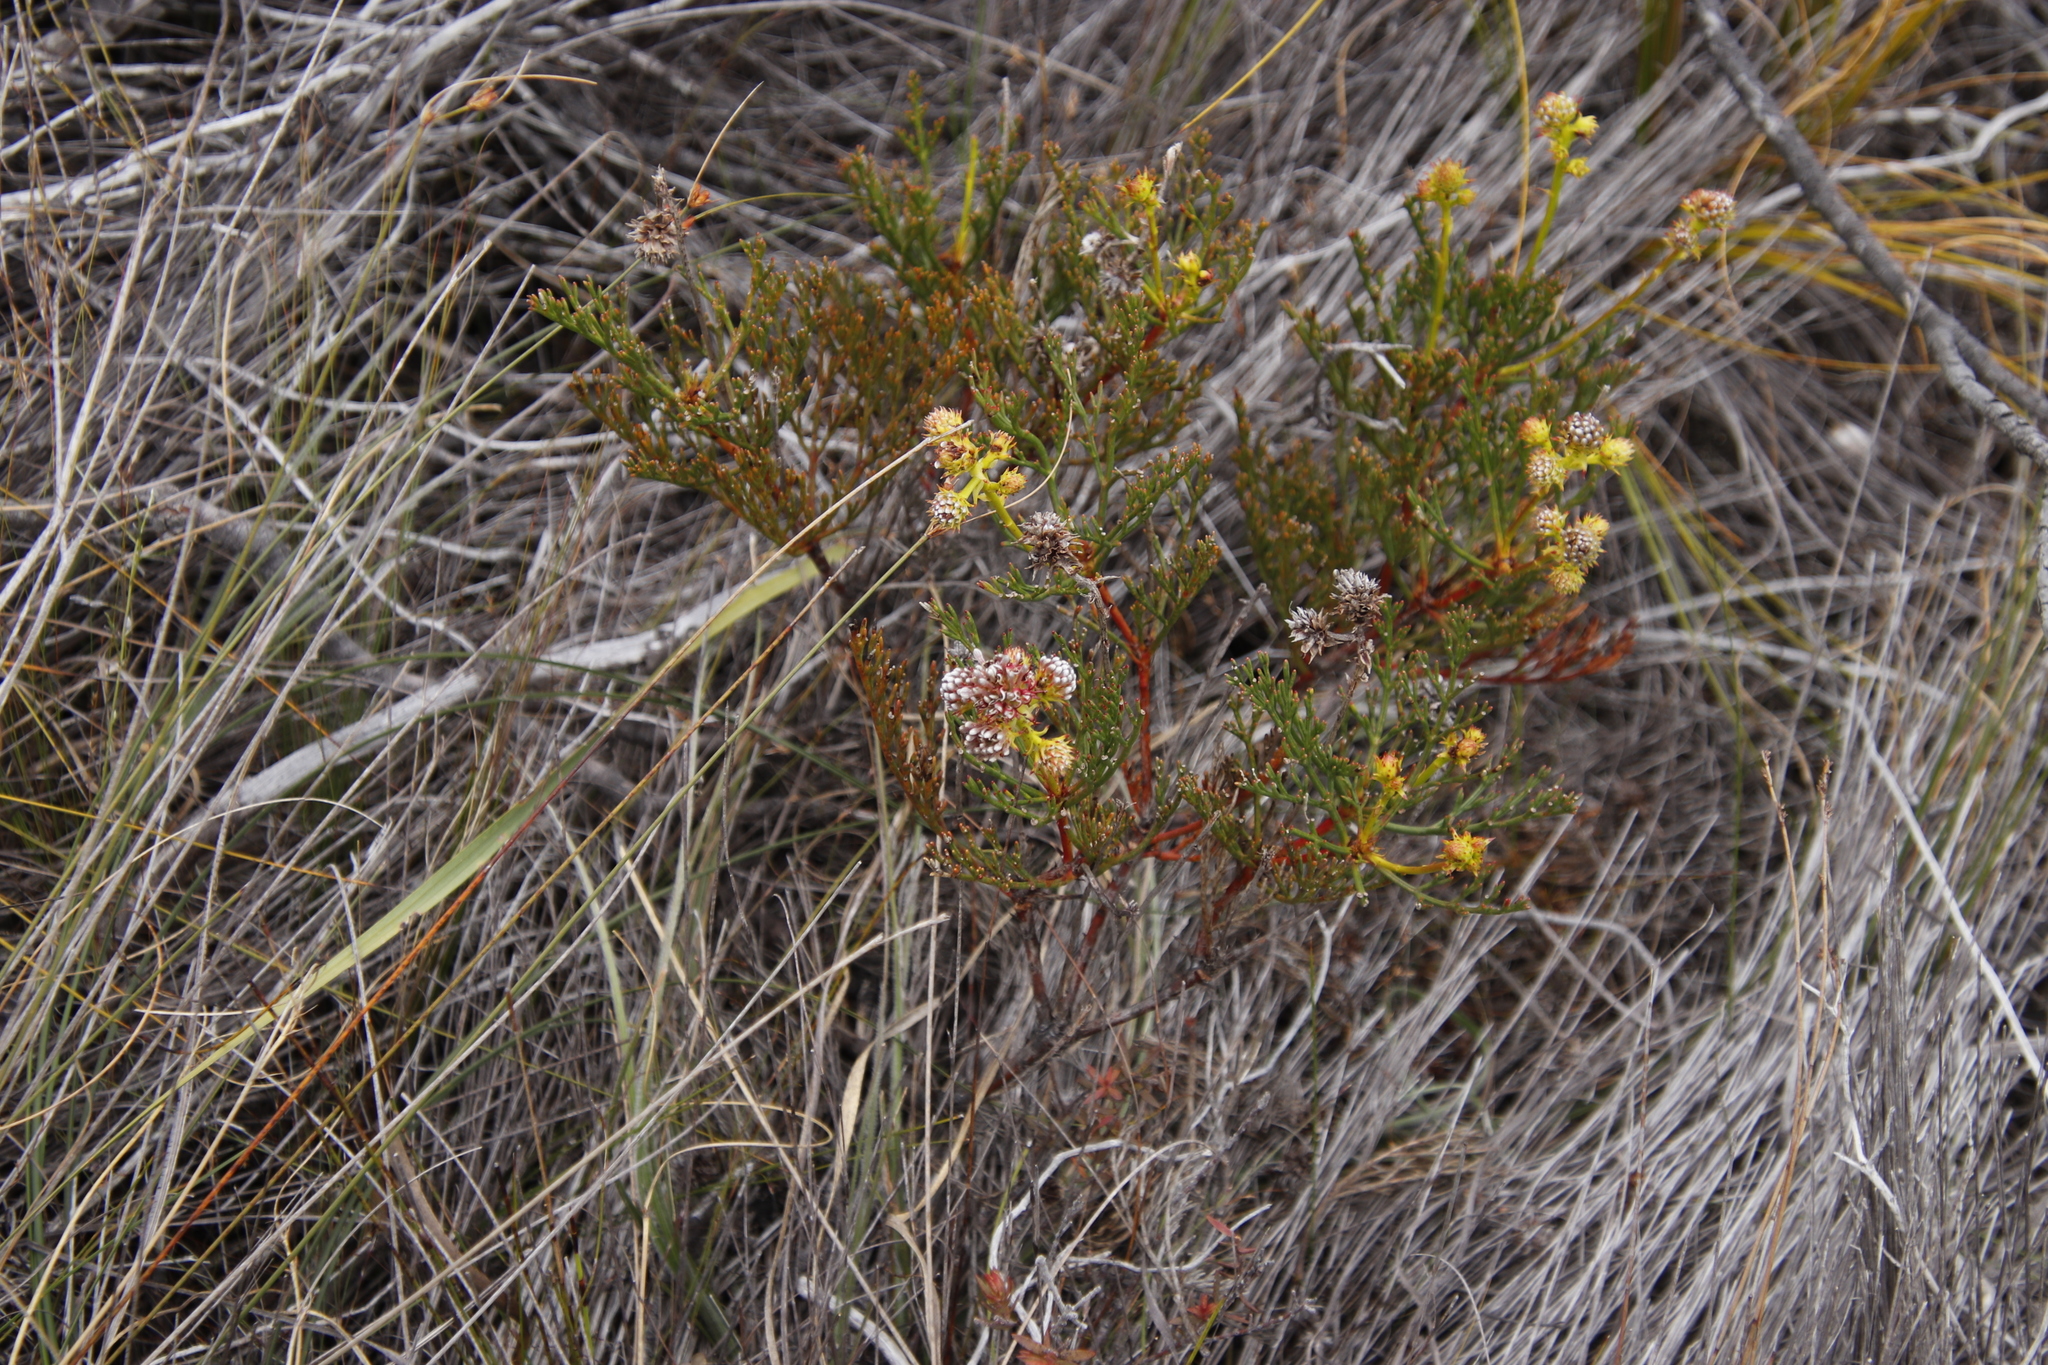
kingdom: Plantae
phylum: Tracheophyta
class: Magnoliopsida
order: Proteales
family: Proteaceae
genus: Serruria
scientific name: Serruria elongata
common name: Long-stalk spiderhead
